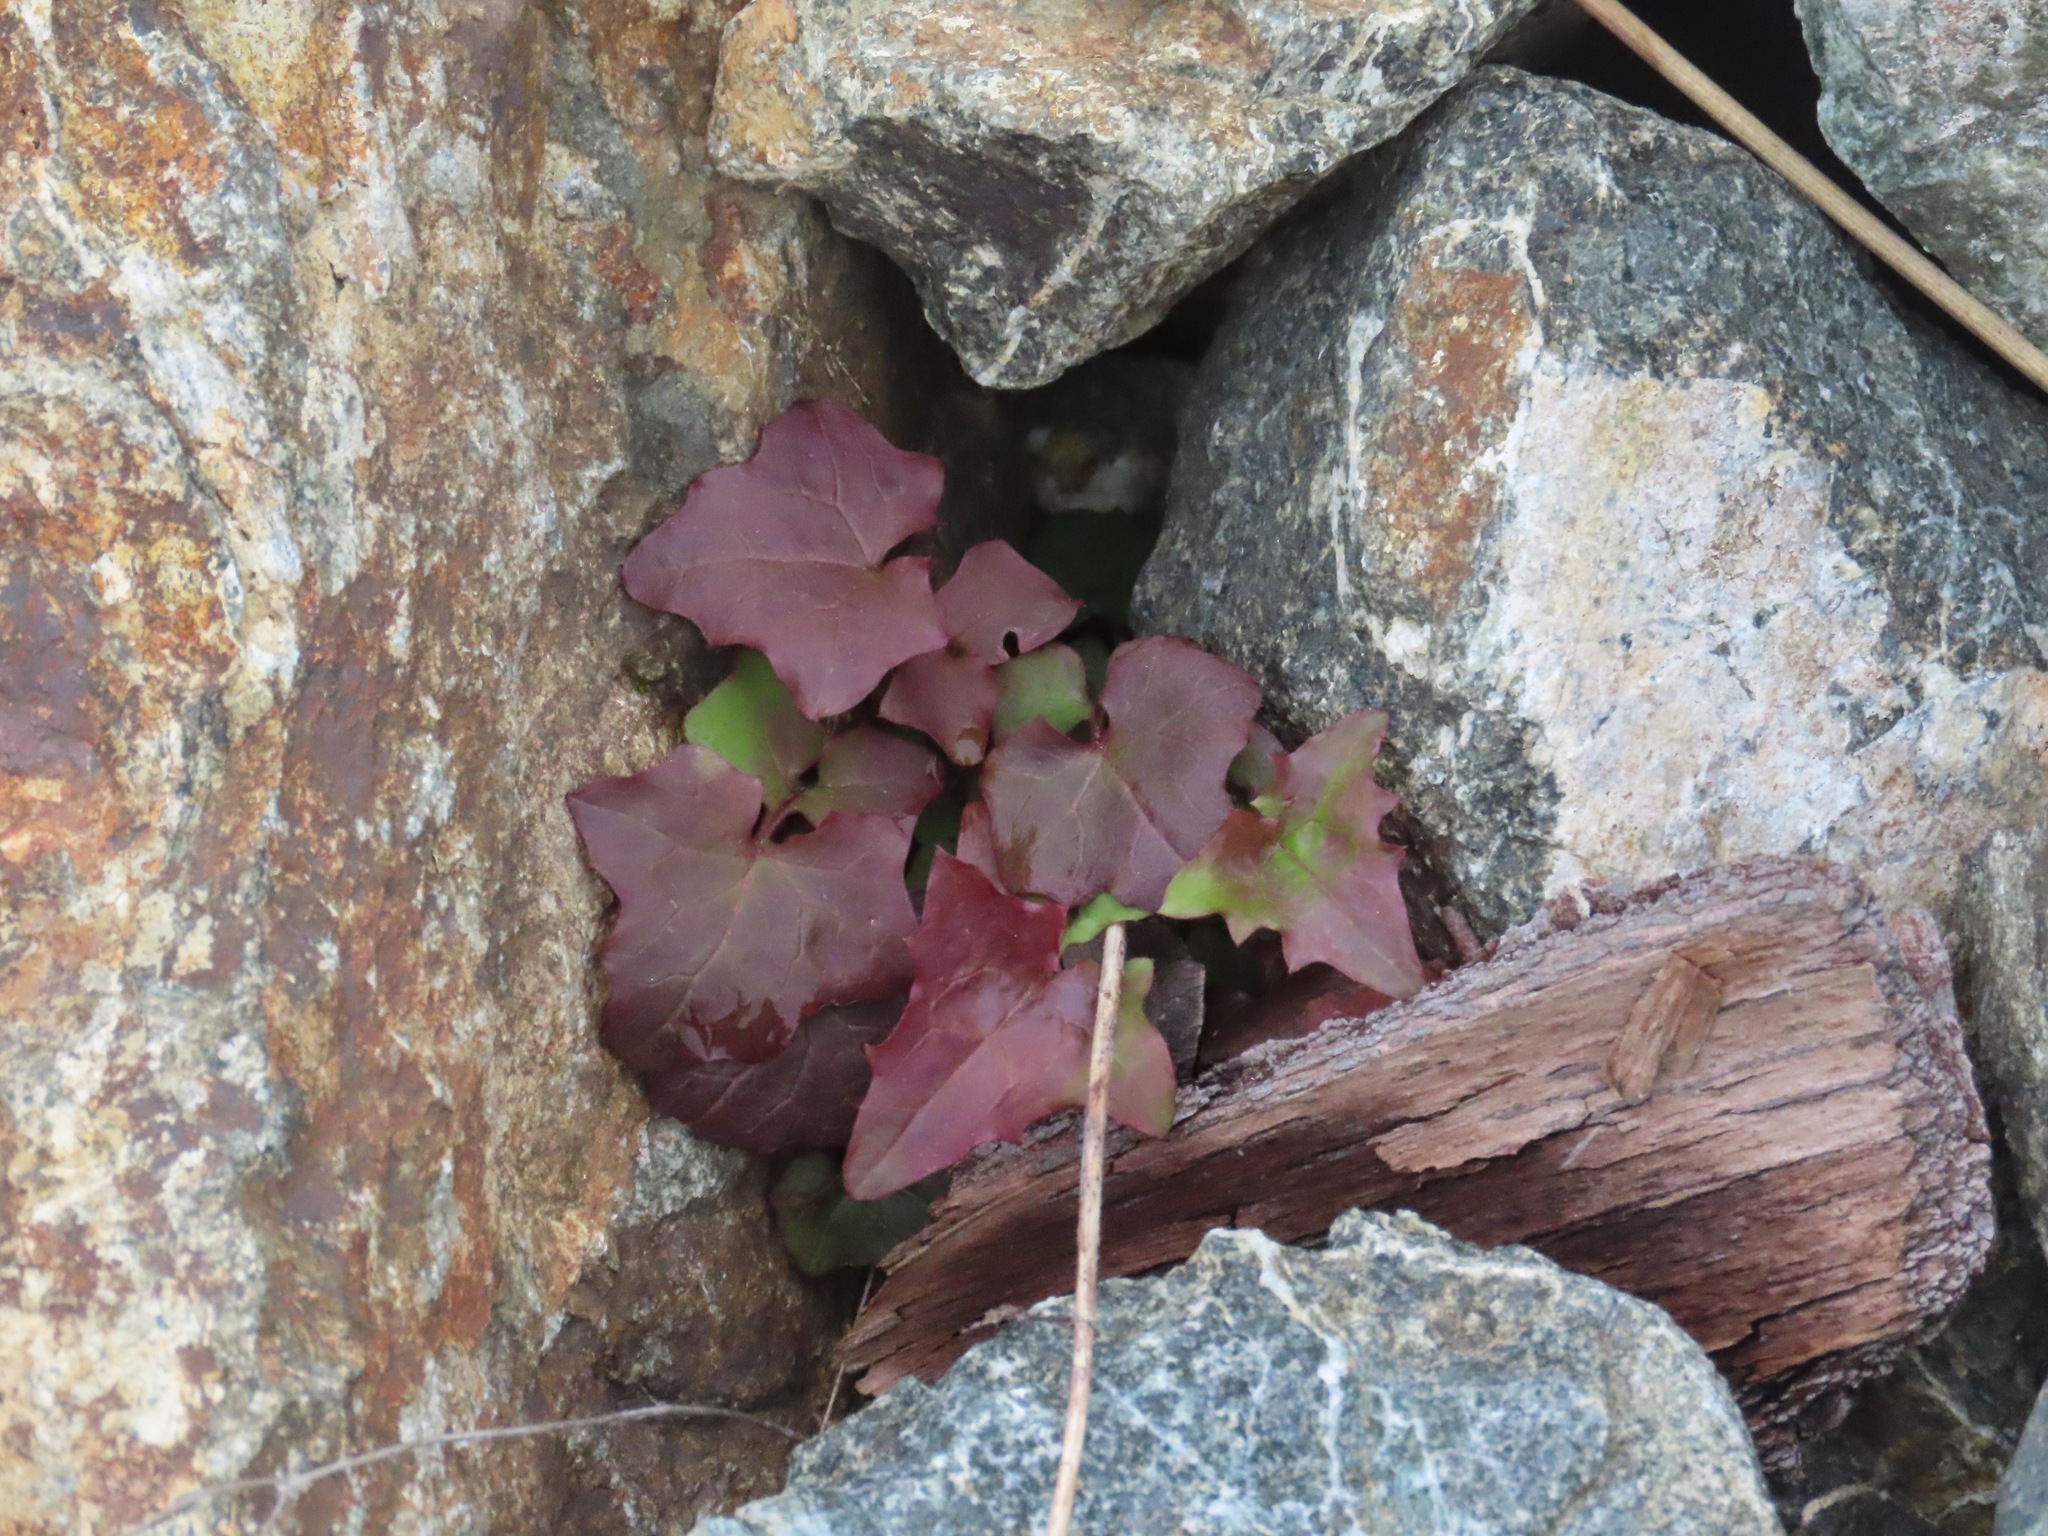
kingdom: Plantae
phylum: Tracheophyta
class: Magnoliopsida
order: Asterales
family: Asteraceae
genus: Mycelis
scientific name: Mycelis muralis
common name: Wall lettuce
